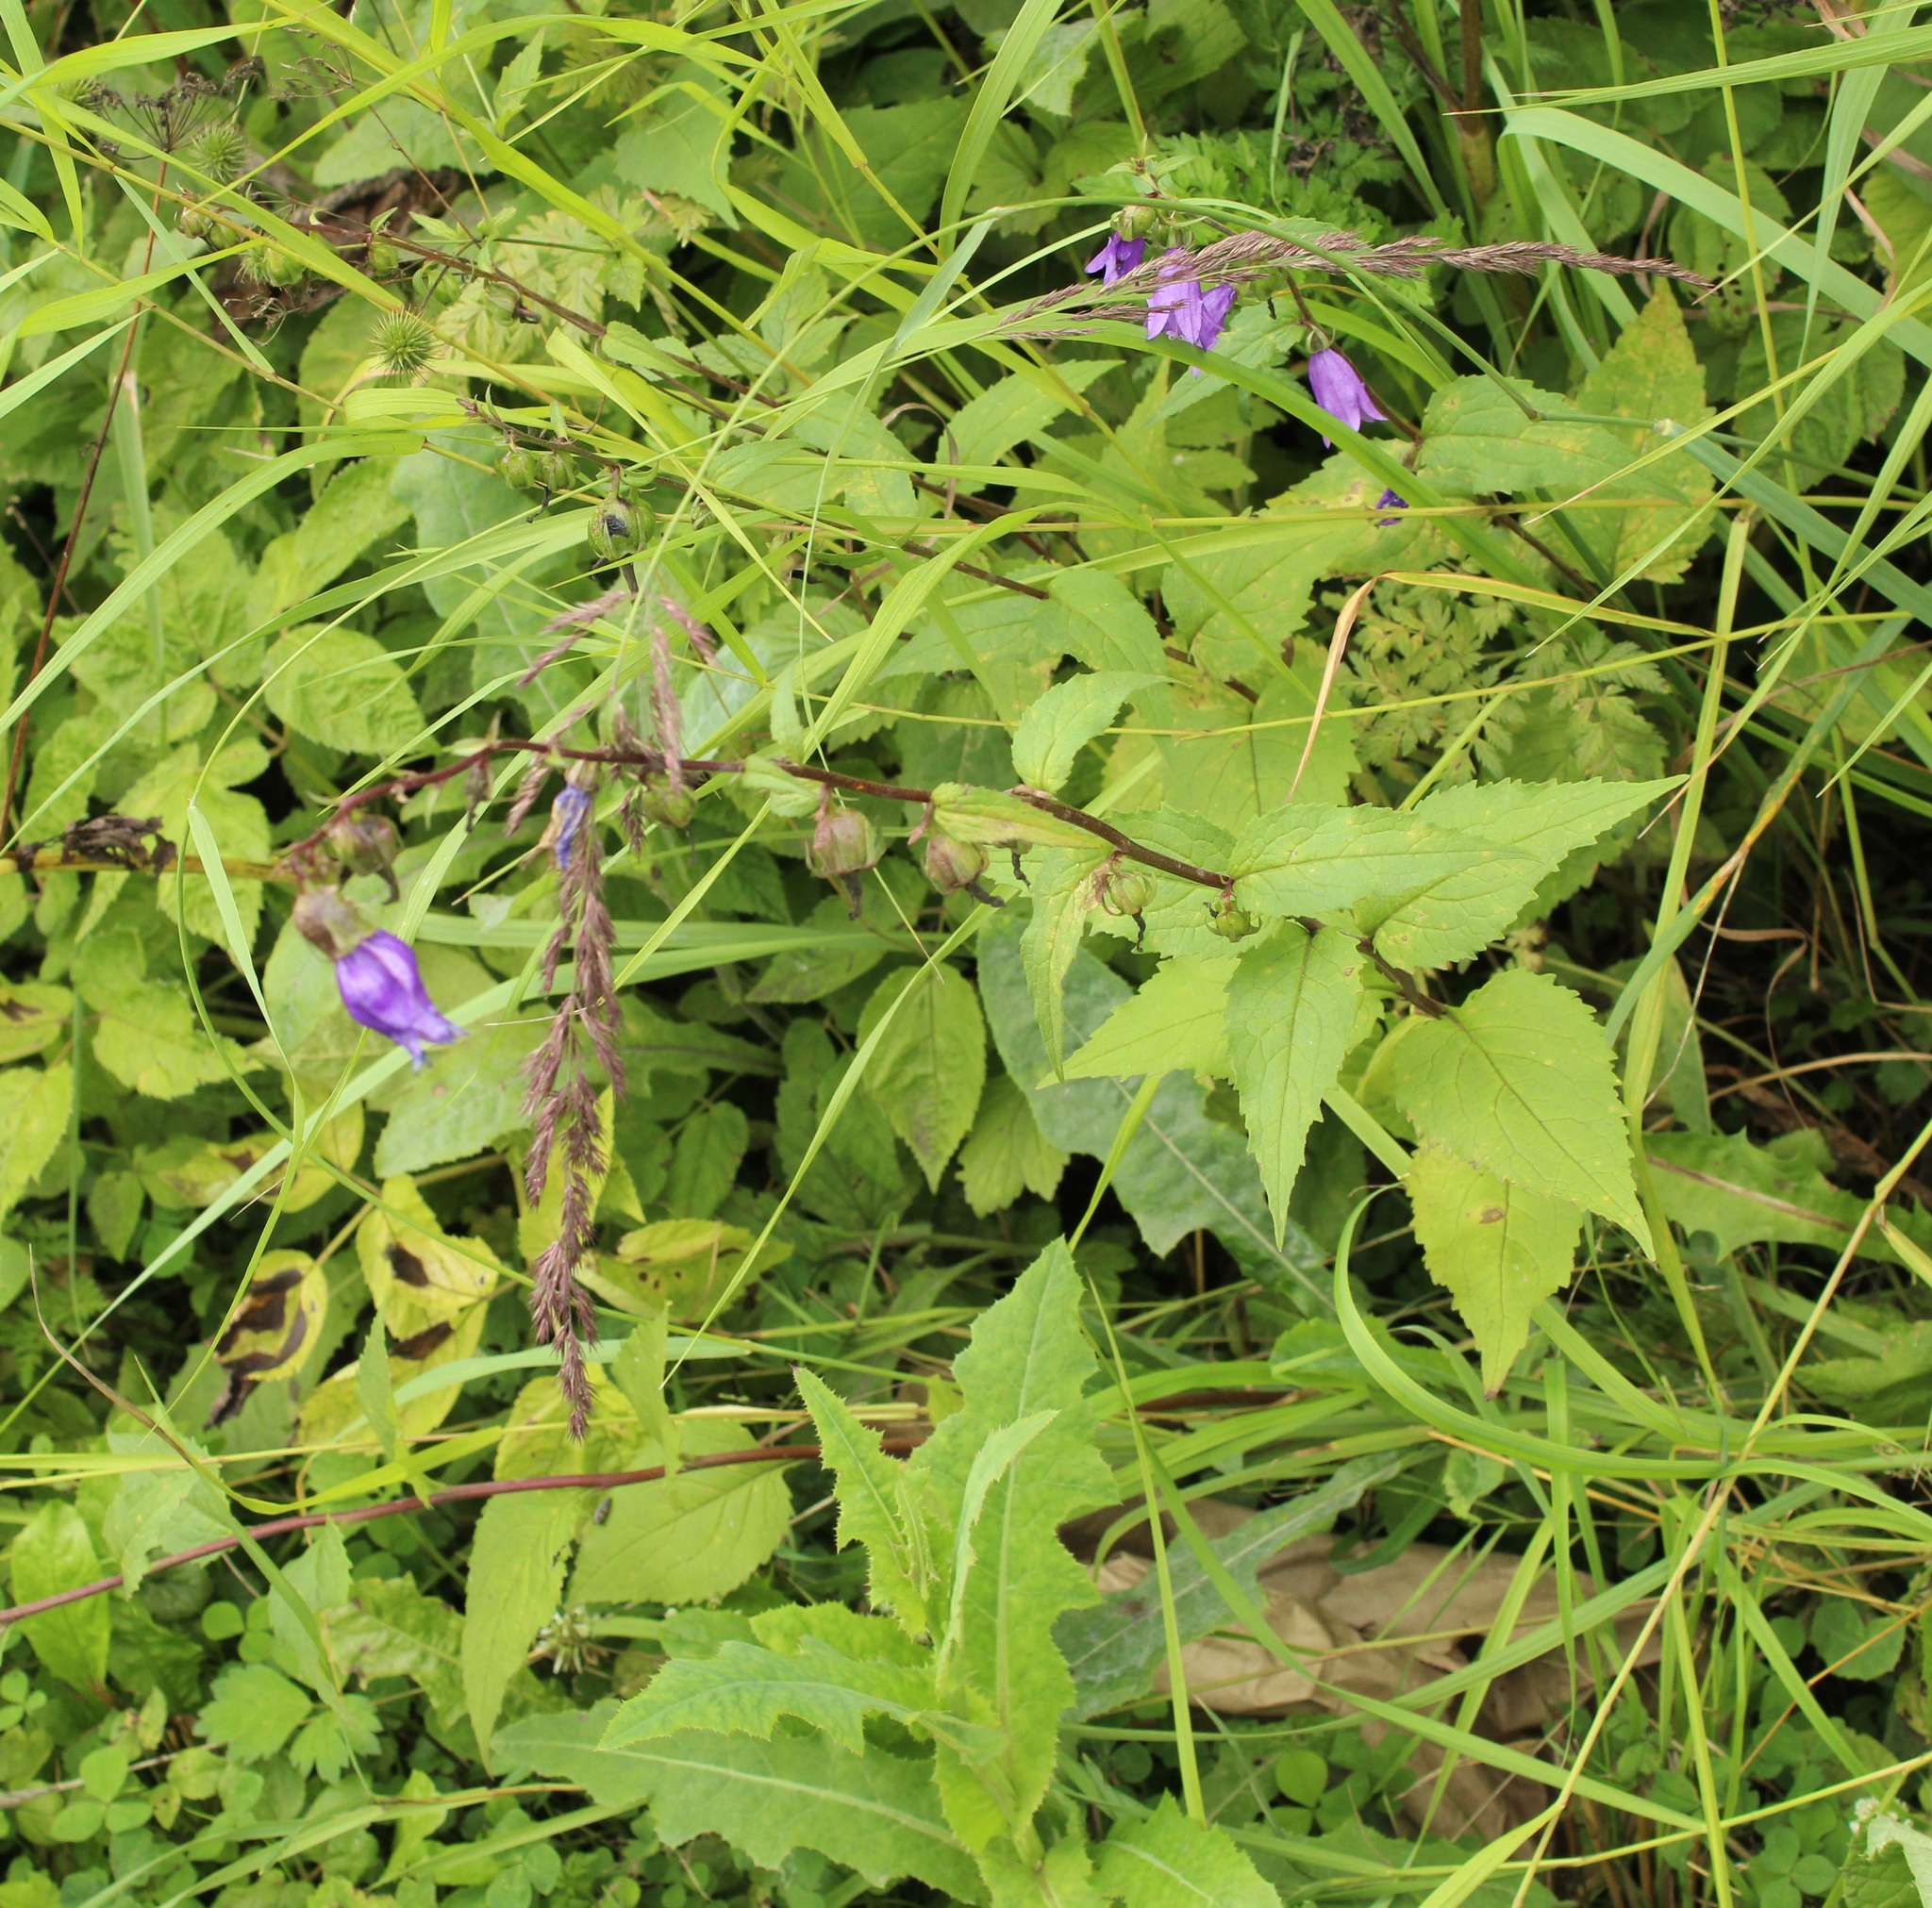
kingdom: Plantae
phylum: Tracheophyta
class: Magnoliopsida
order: Asterales
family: Campanulaceae
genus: Campanula
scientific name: Campanula rapunculoides
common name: Creeping bellflower
